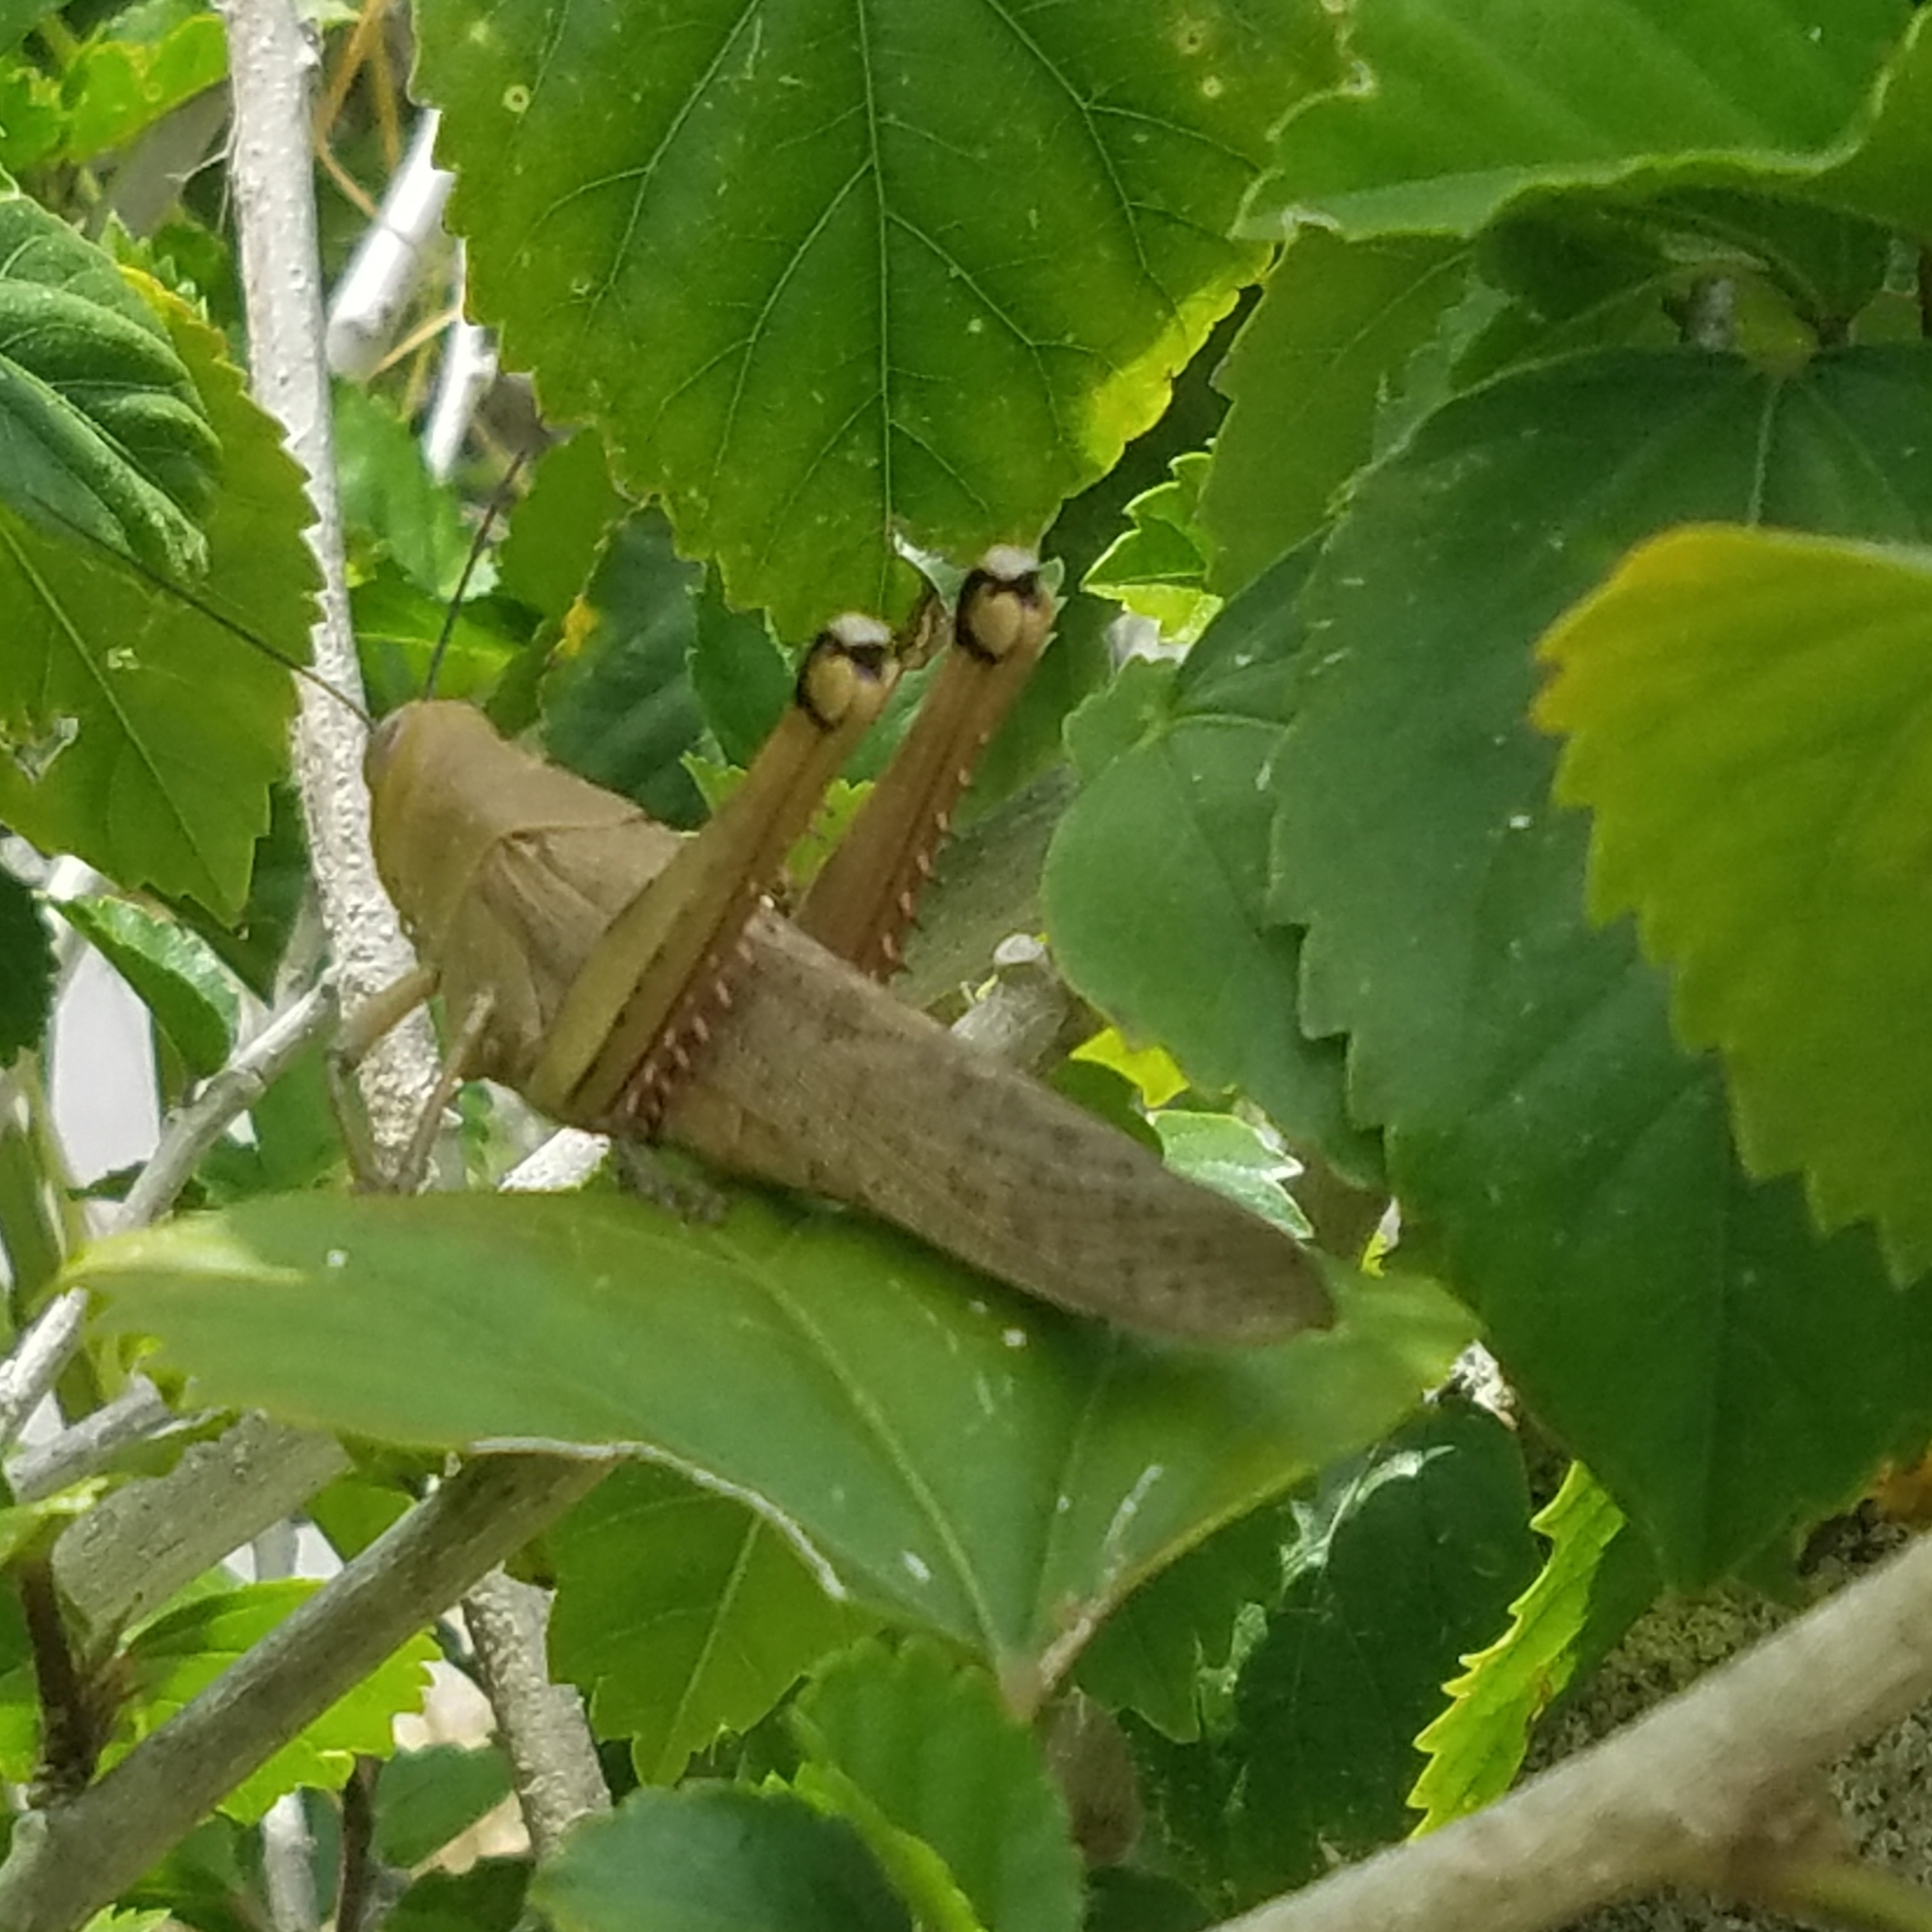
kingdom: Animalia
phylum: Arthropoda
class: Insecta
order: Orthoptera
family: Acrididae
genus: Valanga
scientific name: Valanga irregularis
